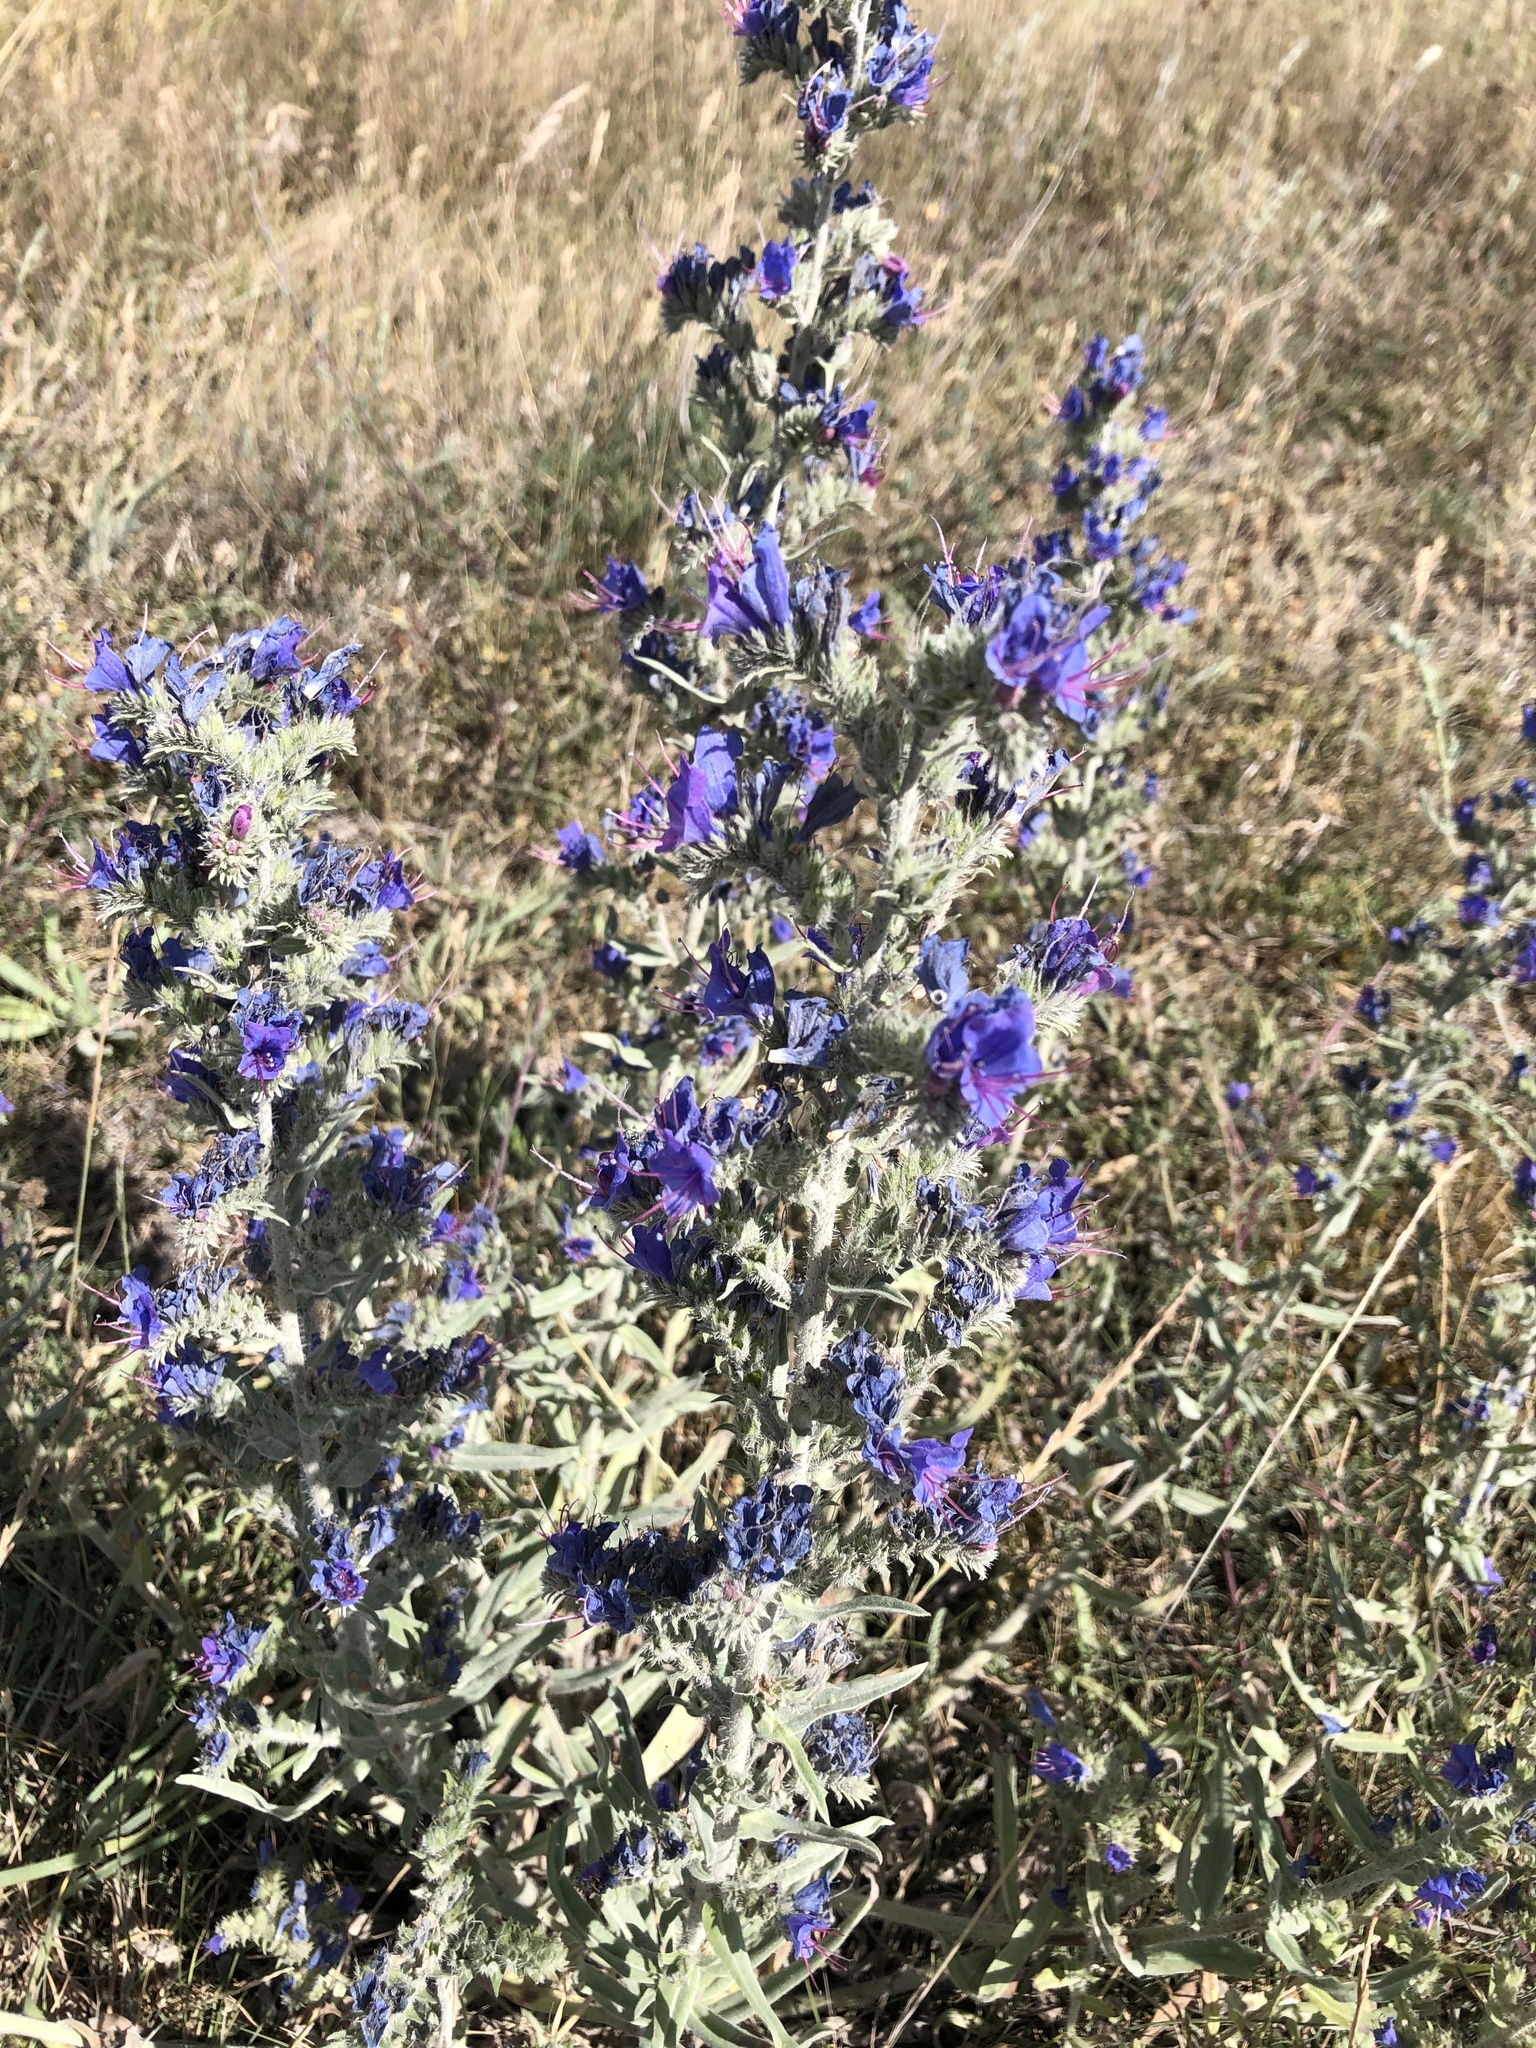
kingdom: Plantae
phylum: Tracheophyta
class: Magnoliopsida
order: Boraginales
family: Boraginaceae
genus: Echium
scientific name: Echium vulgare
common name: Common viper's bugloss
